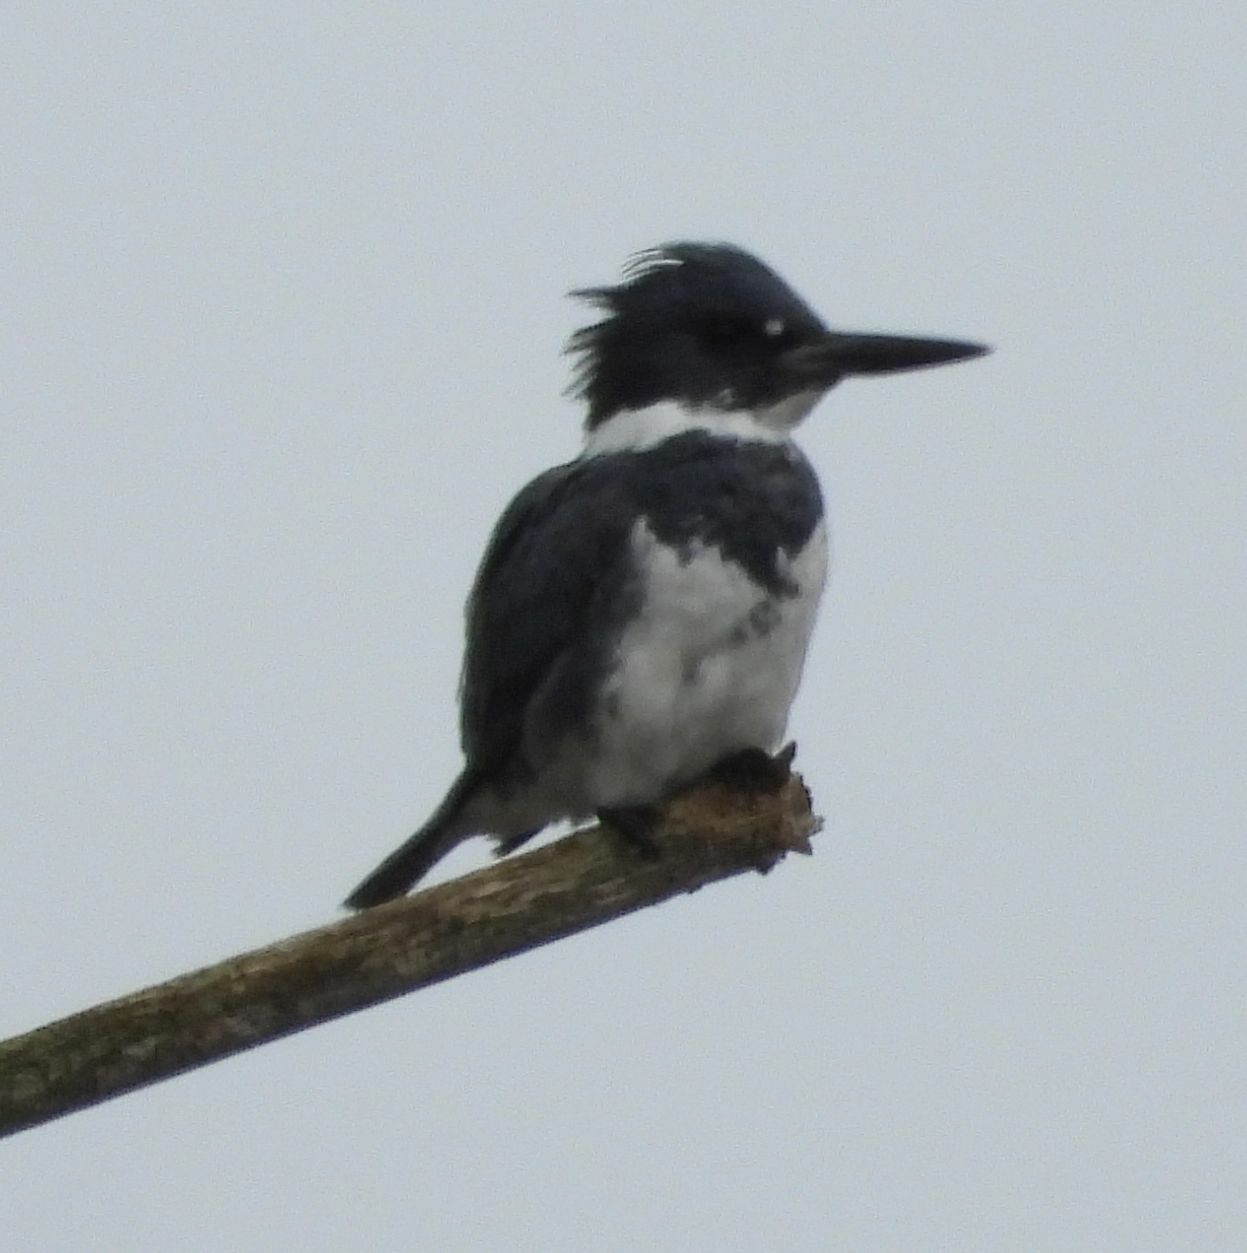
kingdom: Animalia
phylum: Chordata
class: Aves
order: Coraciiformes
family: Alcedinidae
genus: Megaceryle
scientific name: Megaceryle alcyon
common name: Belted kingfisher
